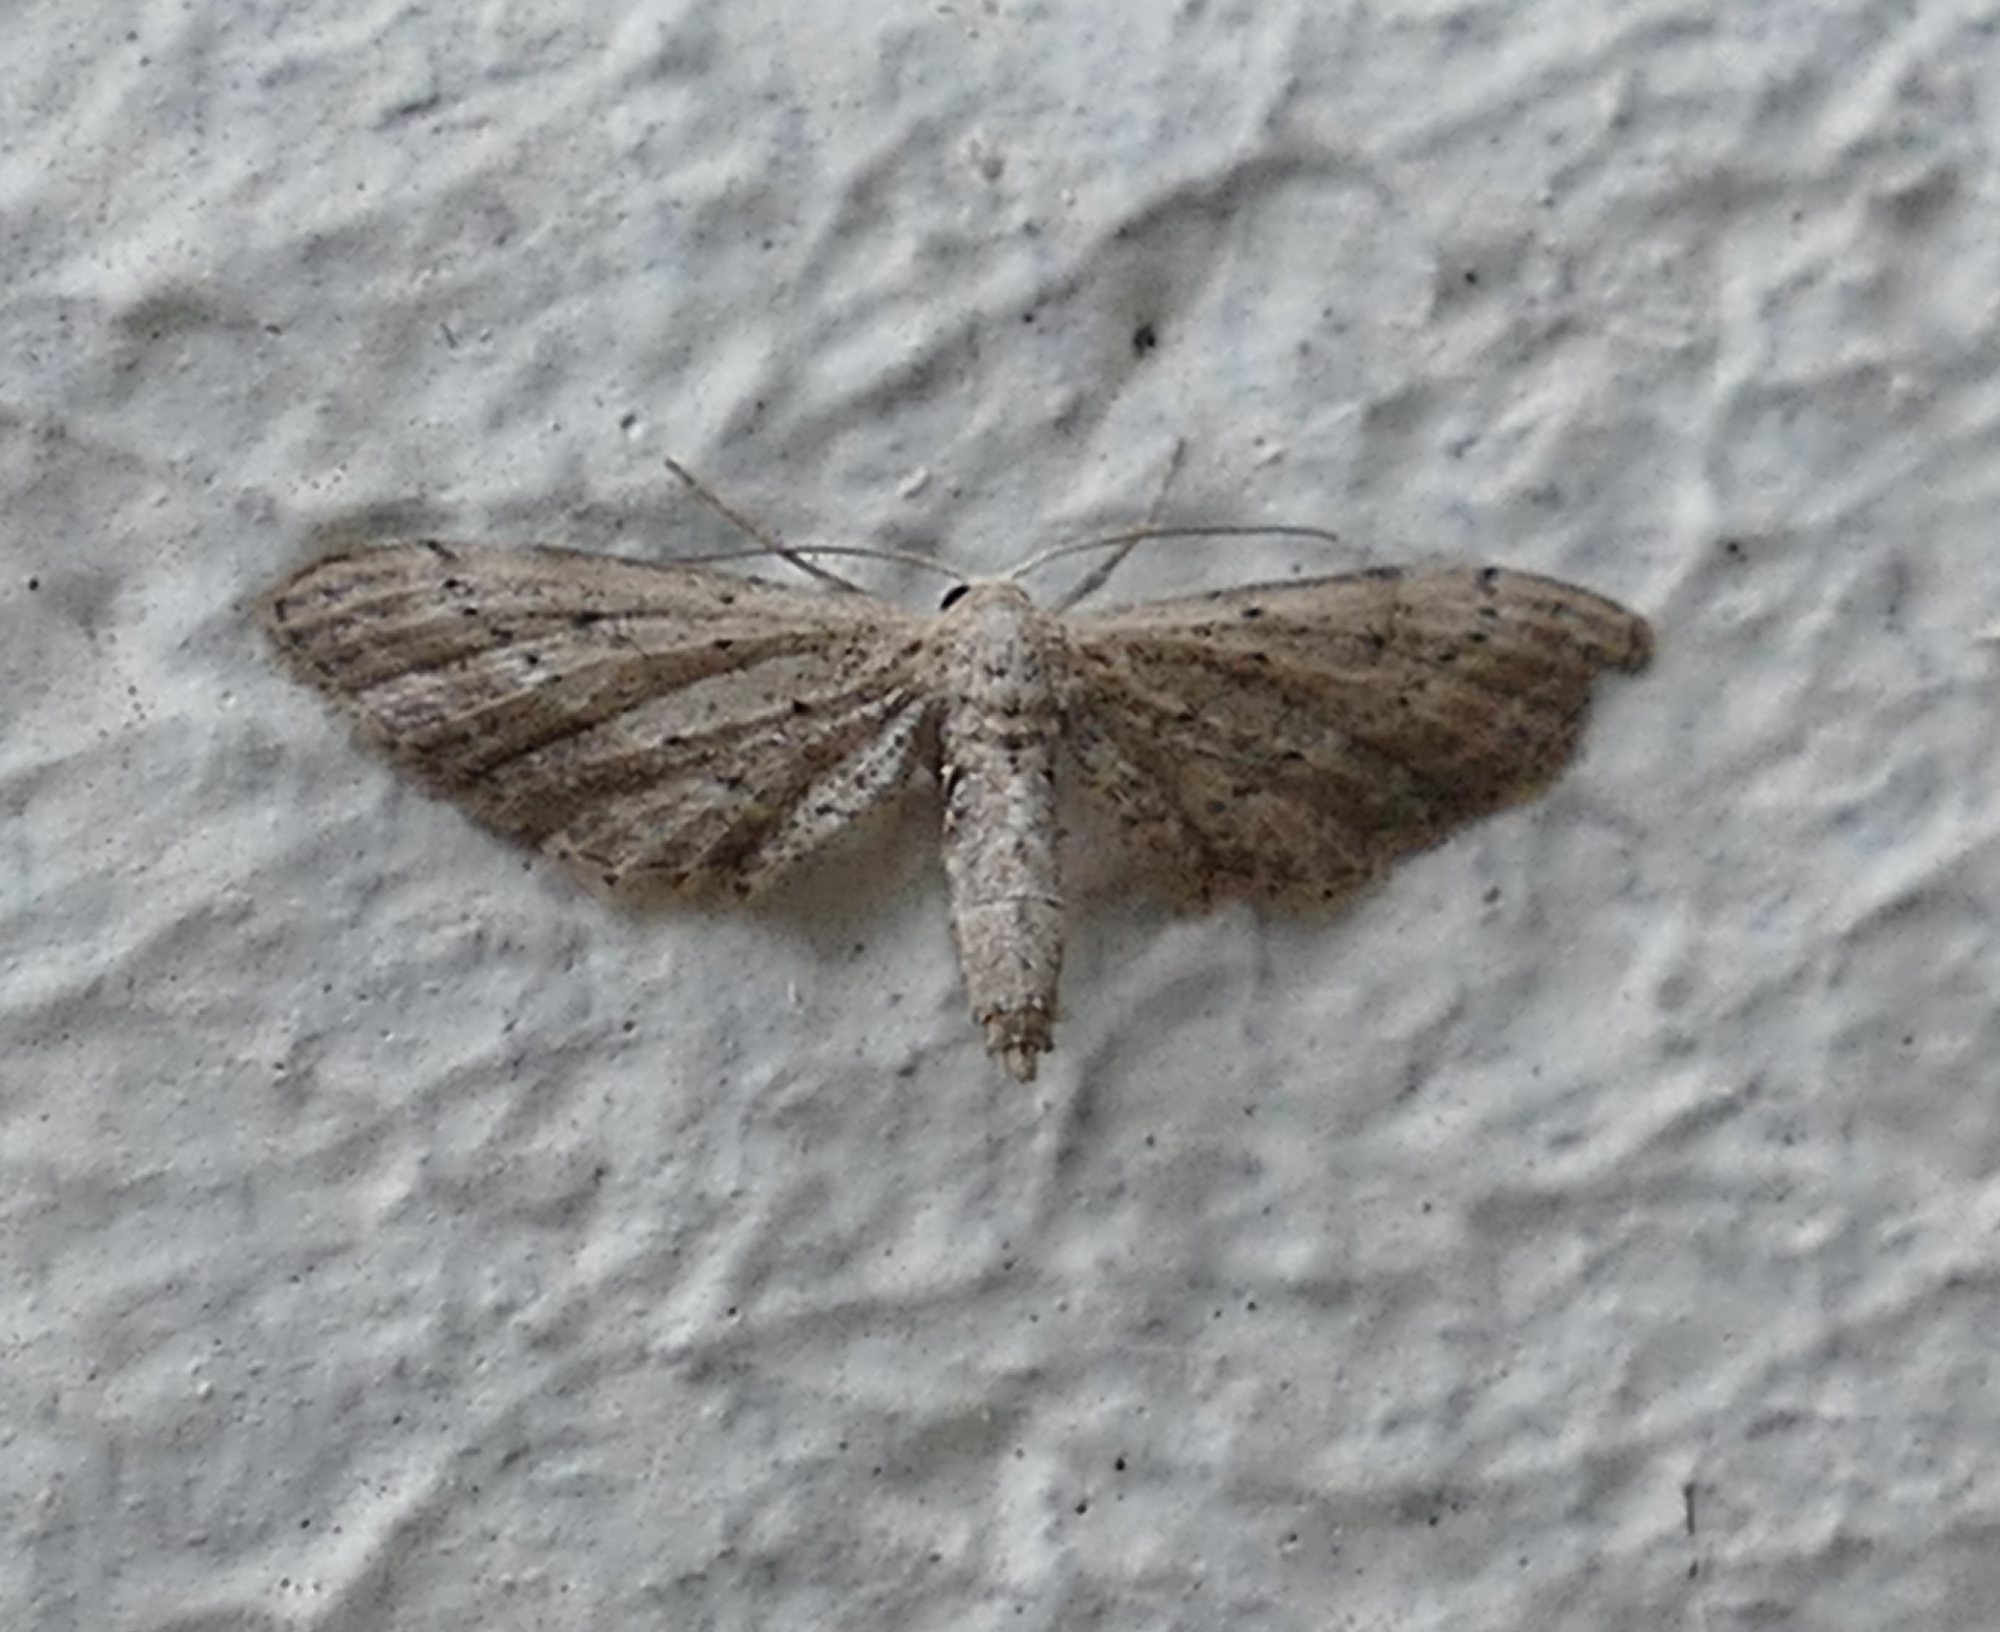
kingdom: Animalia
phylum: Arthropoda
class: Insecta
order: Lepidoptera
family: Geometridae
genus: Eumacrodes
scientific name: Eumacrodes yponomeutaria
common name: Slender geometrid moth
